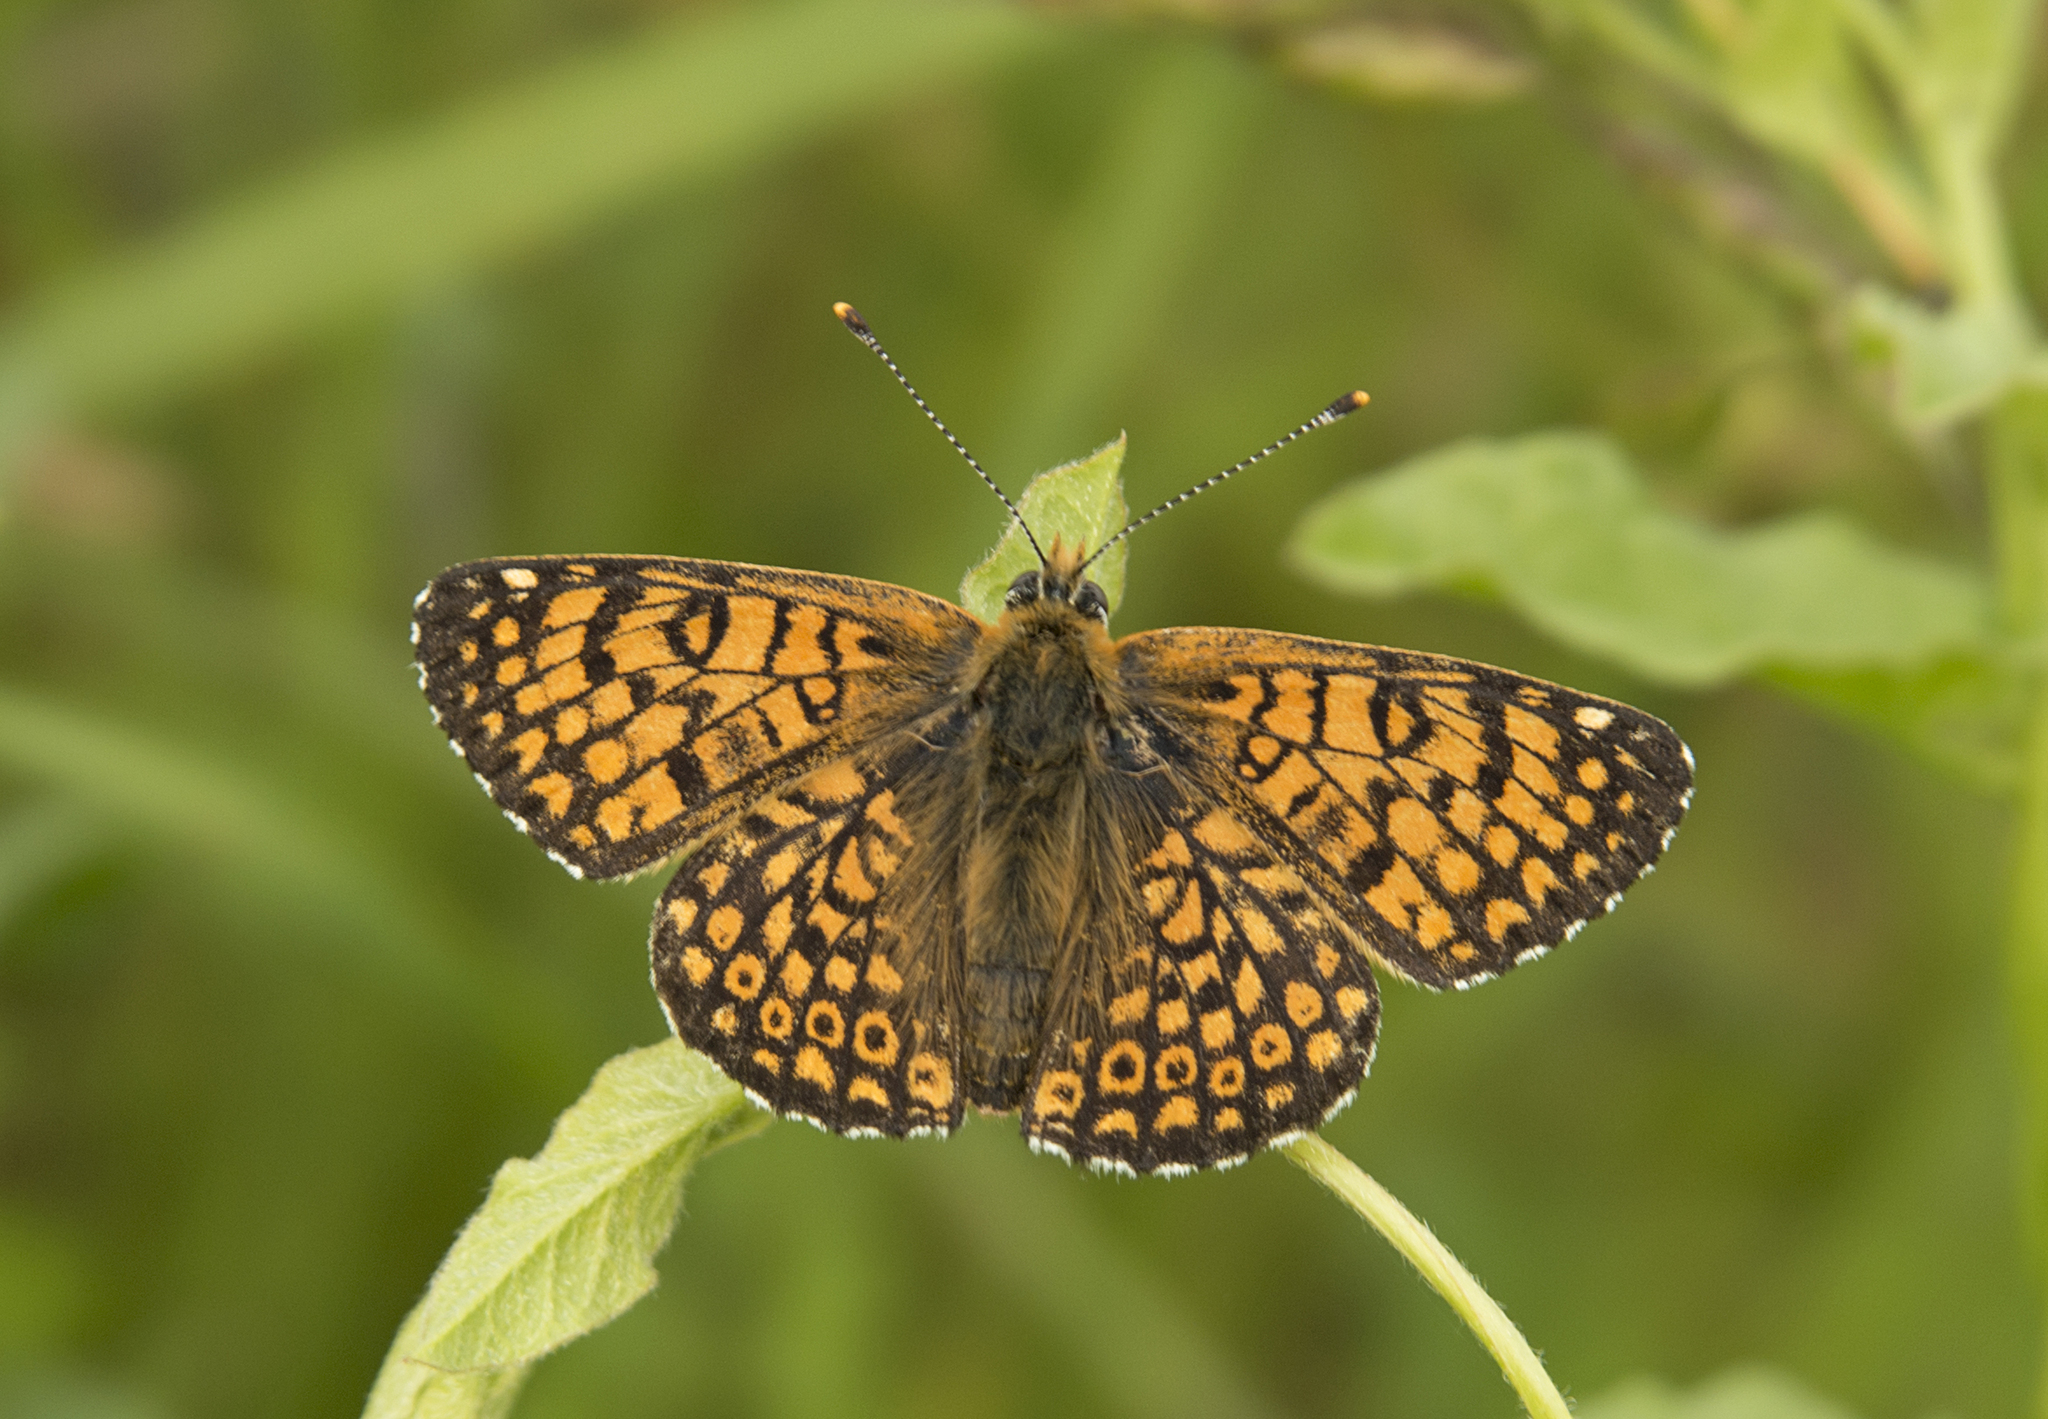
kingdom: Animalia
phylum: Arthropoda
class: Insecta
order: Lepidoptera
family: Nymphalidae
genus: Melitaea
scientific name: Melitaea cinxia
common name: Glanville fritillary
